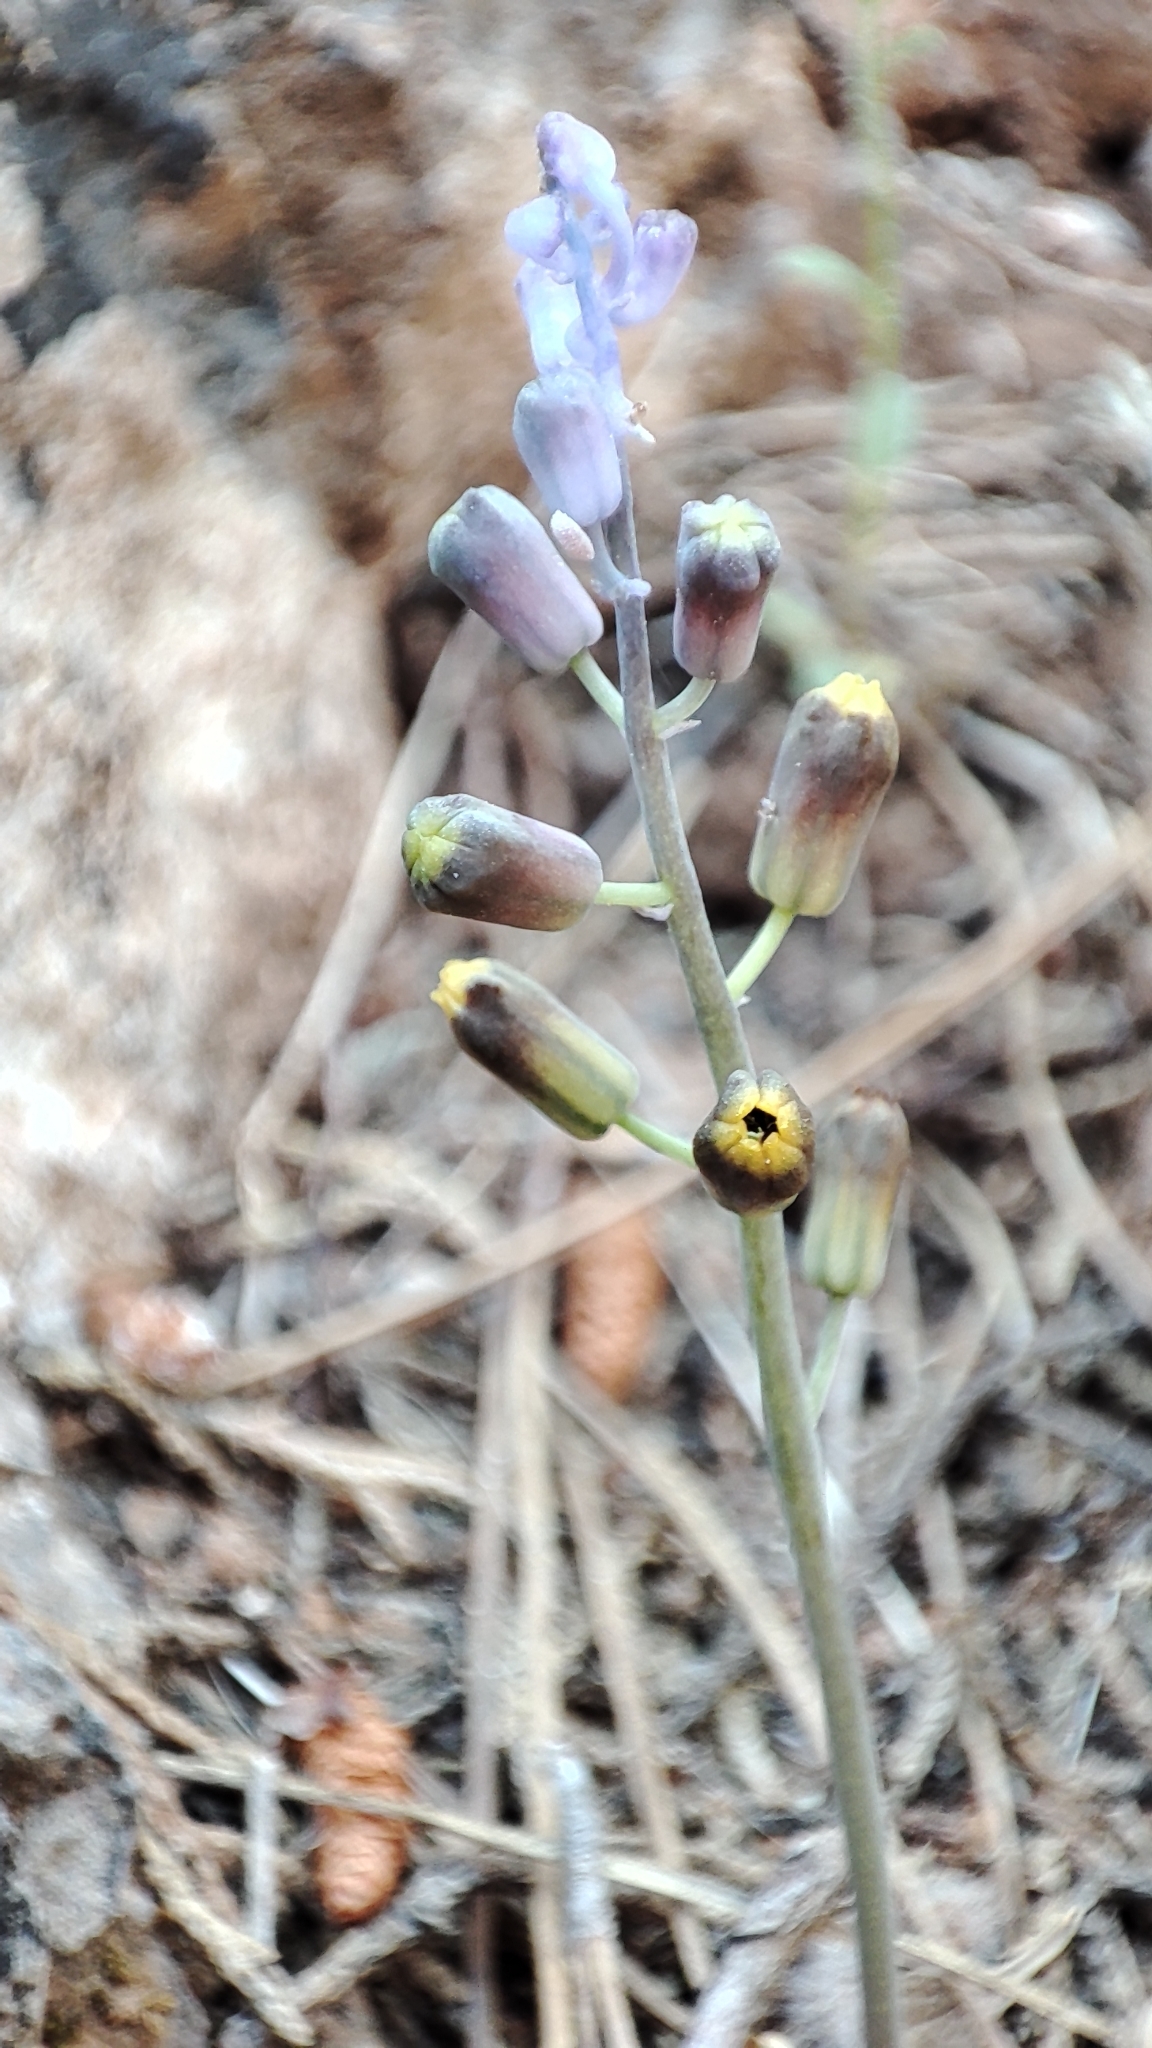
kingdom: Plantae
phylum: Tracheophyta
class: Liliopsida
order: Asparagales
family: Asparagaceae
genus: Muscari
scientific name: Muscari spreitzenhoferi
